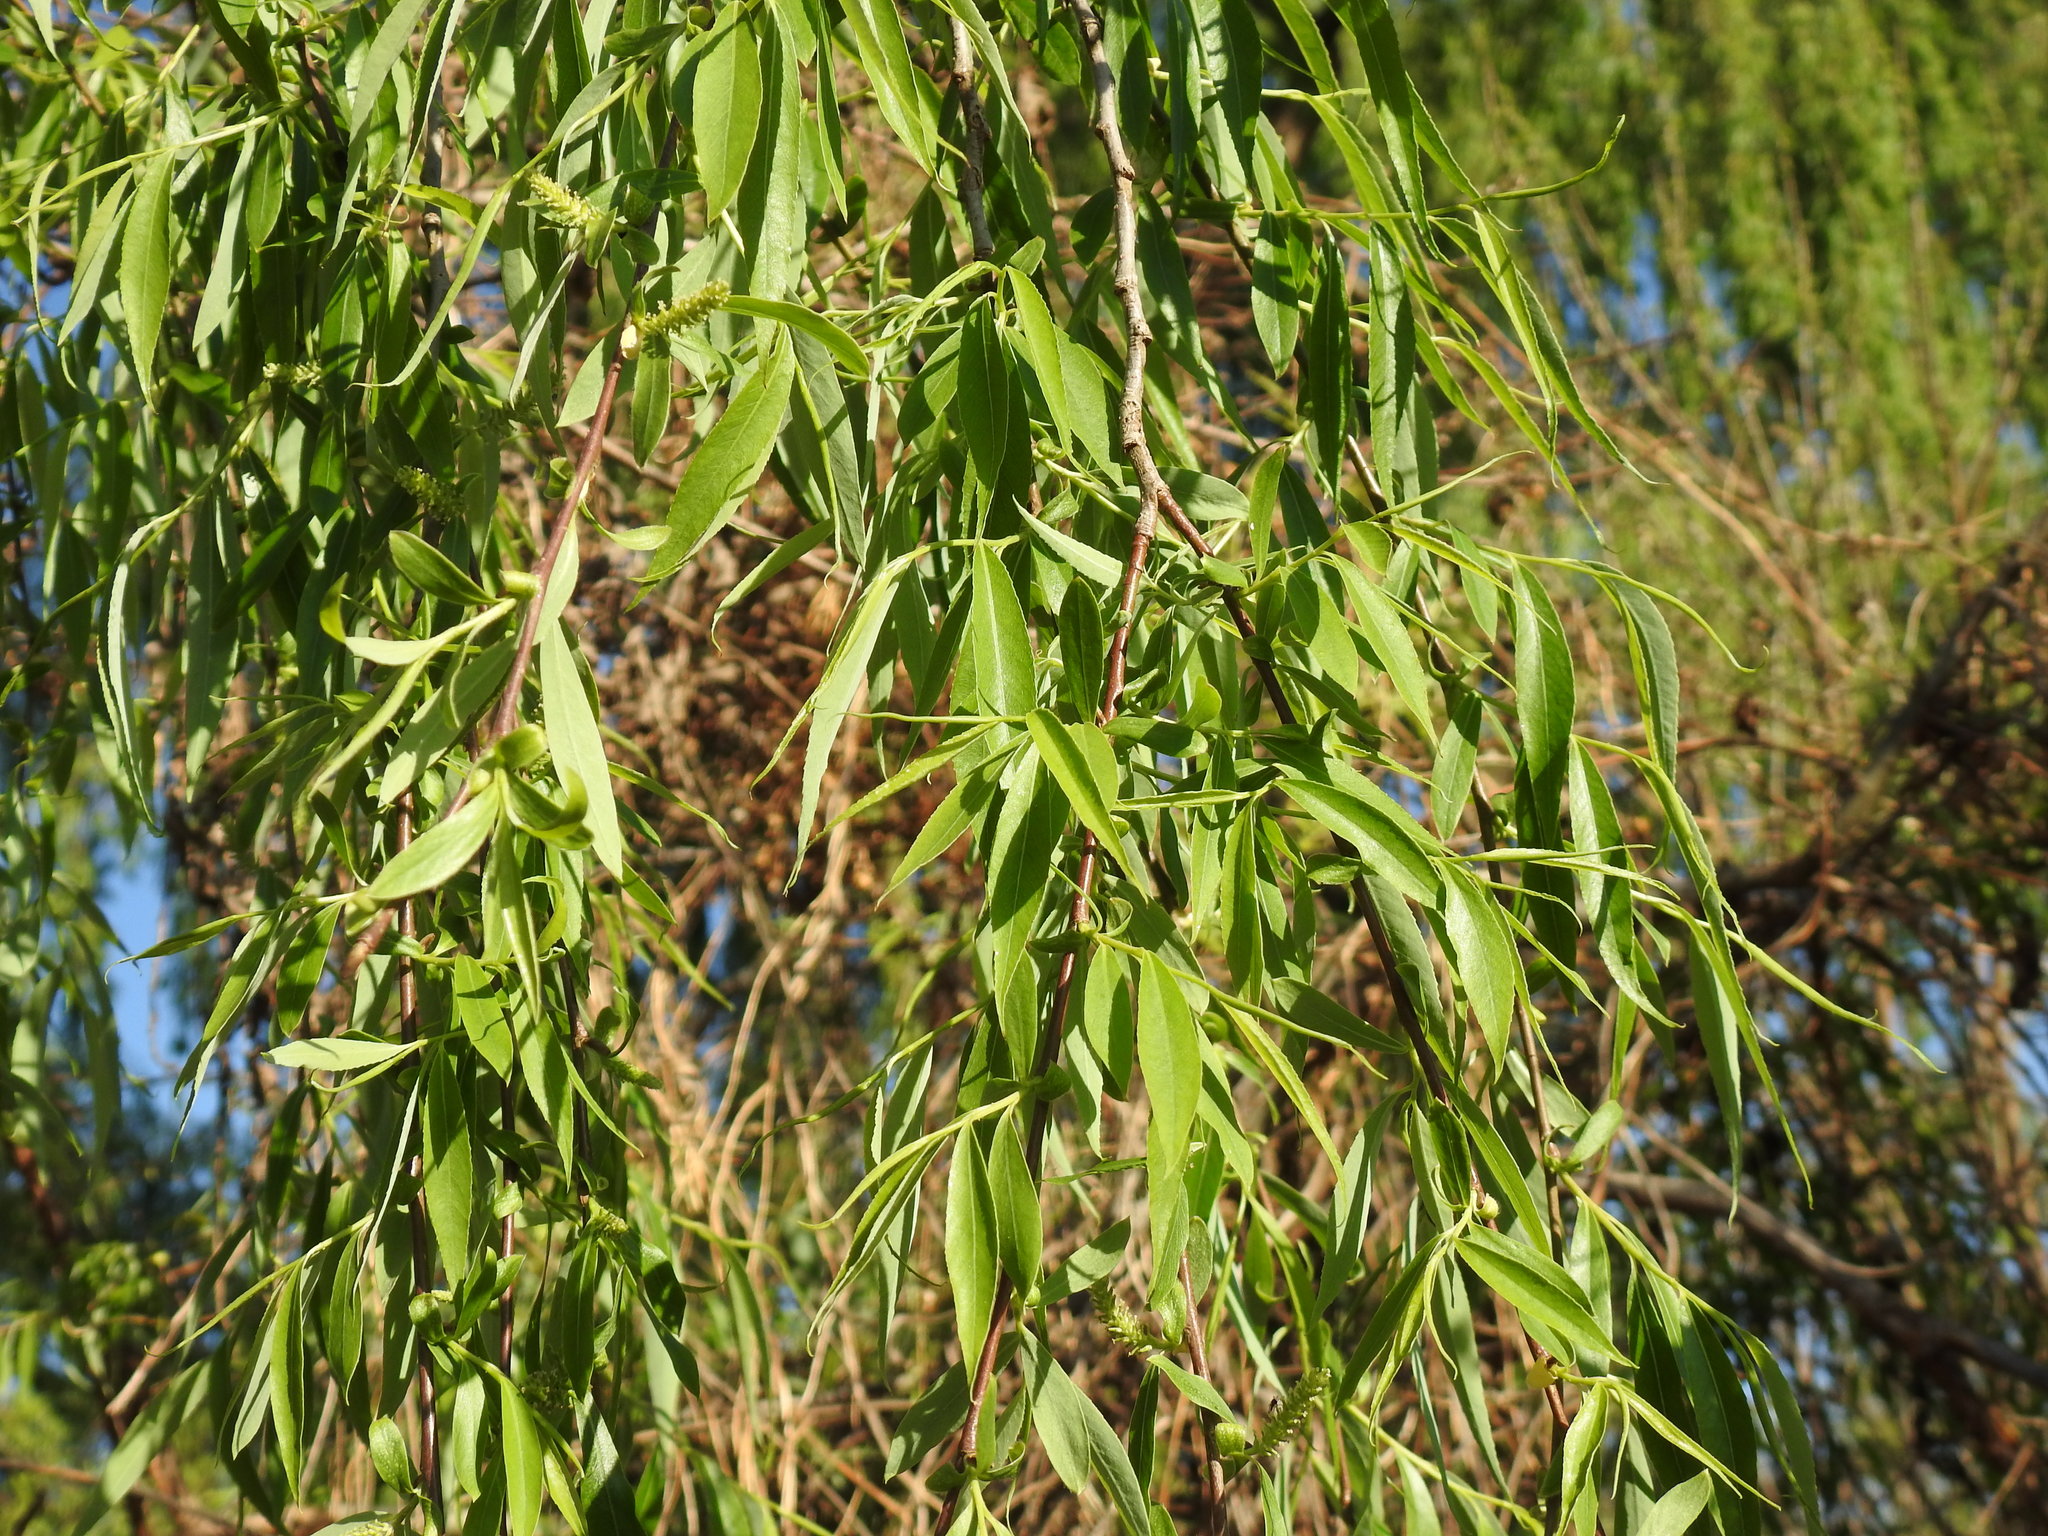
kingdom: Plantae
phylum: Tracheophyta
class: Magnoliopsida
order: Malpighiales
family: Salicaceae
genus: Salix
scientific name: Salix babylonica
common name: Weeping willow
